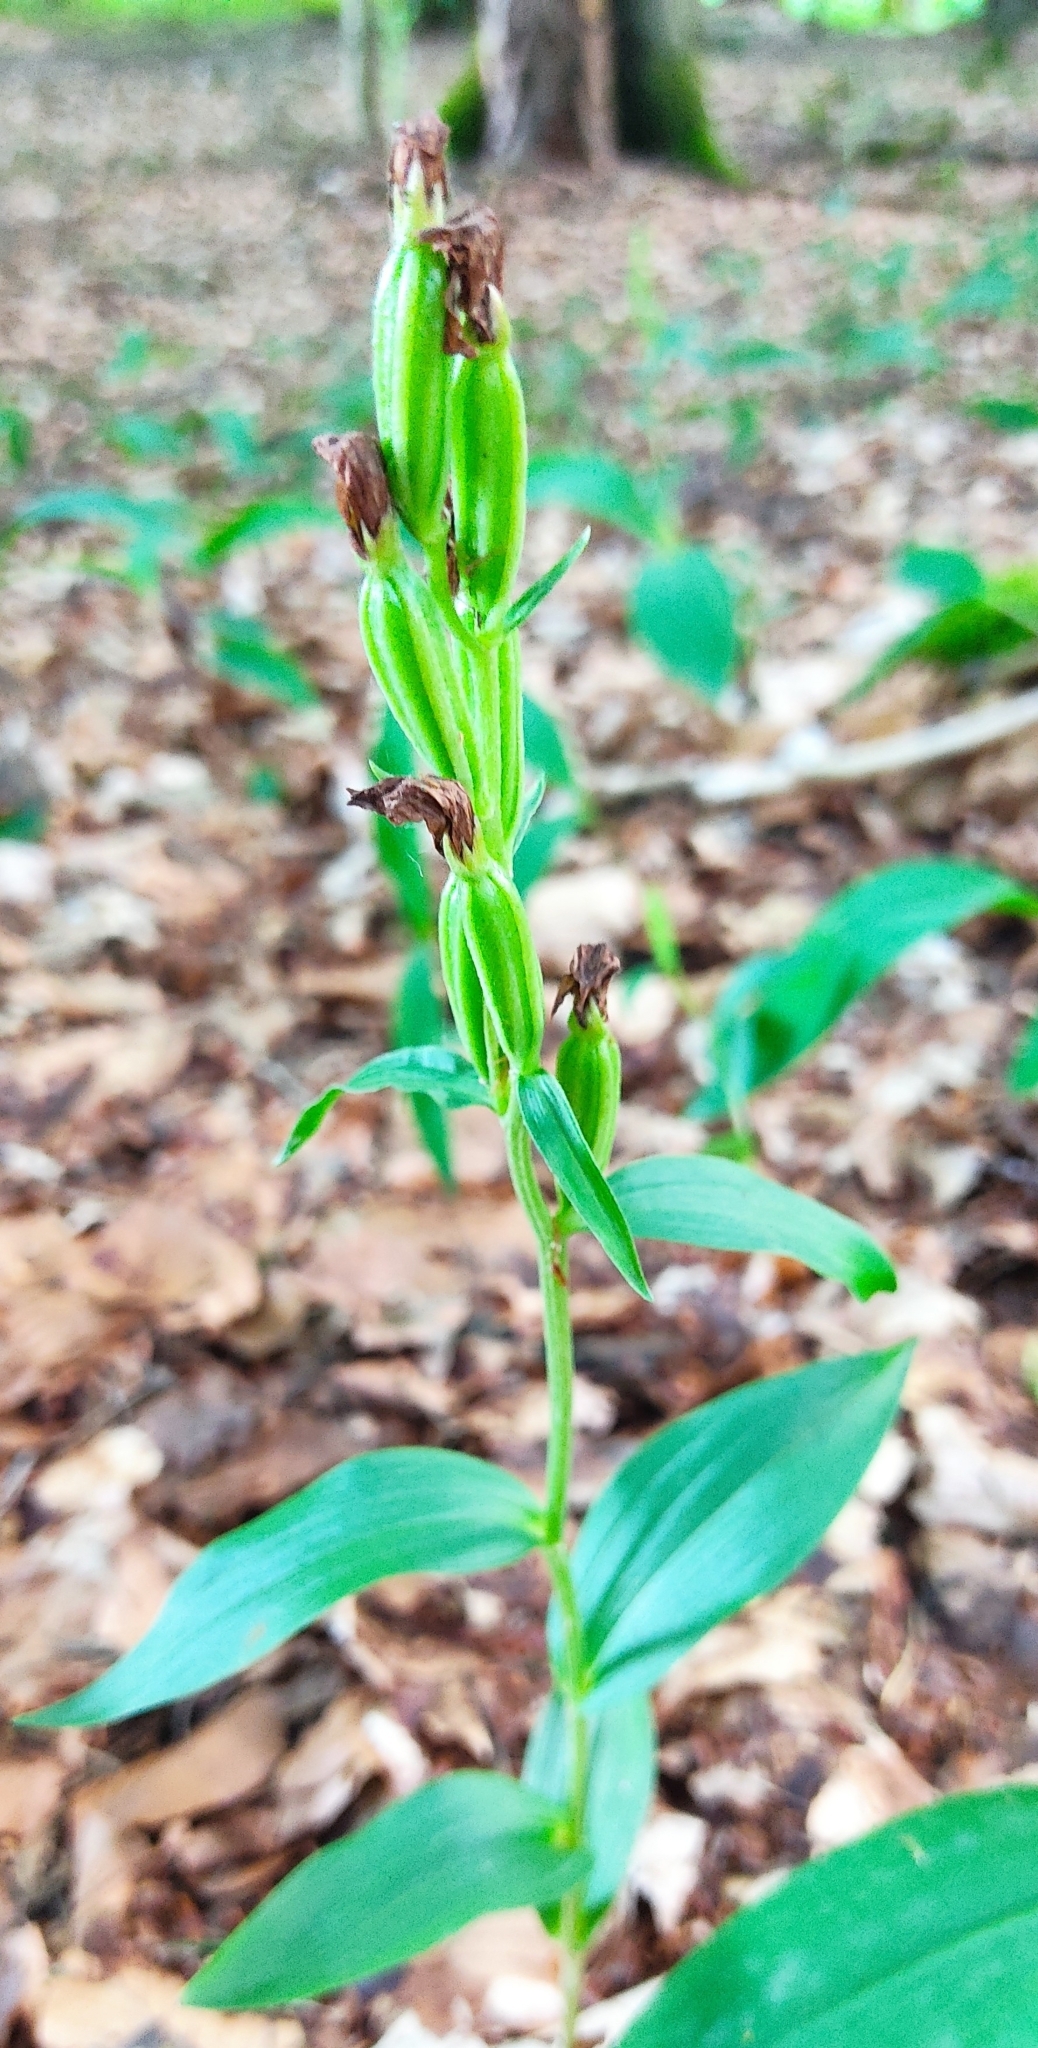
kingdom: Plantae
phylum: Tracheophyta
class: Liliopsida
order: Asparagales
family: Orchidaceae
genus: Cephalanthera
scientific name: Cephalanthera damasonium
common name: White helleborine
